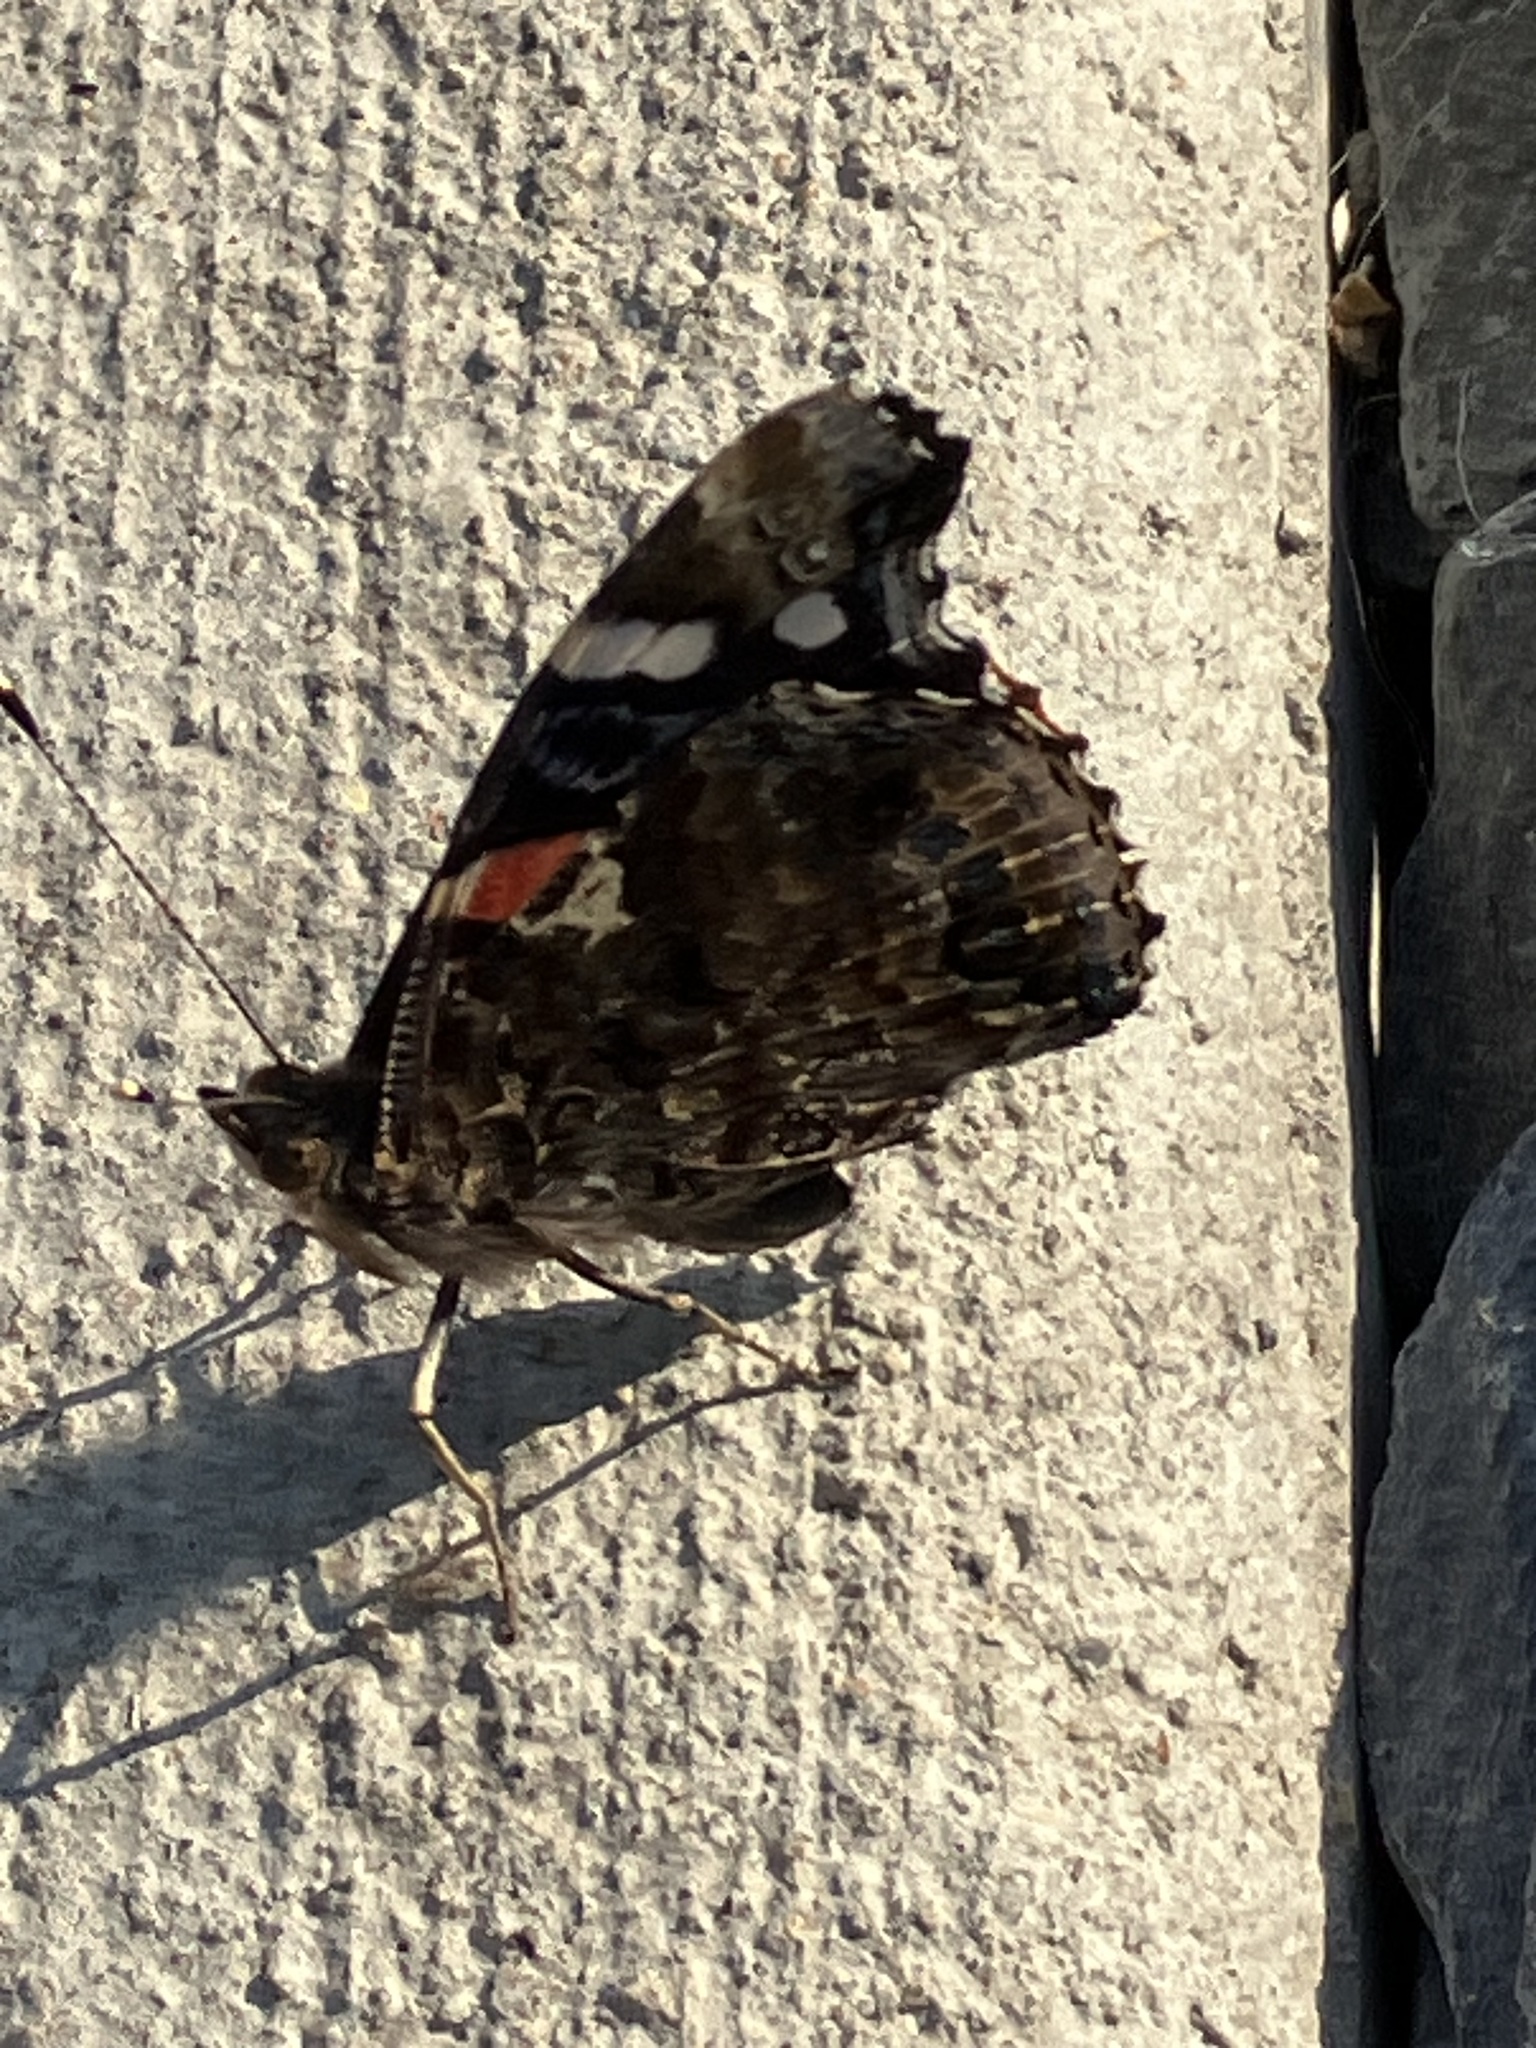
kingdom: Animalia
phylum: Arthropoda
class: Insecta
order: Lepidoptera
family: Nymphalidae
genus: Vanessa
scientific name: Vanessa atalanta
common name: Red admiral
